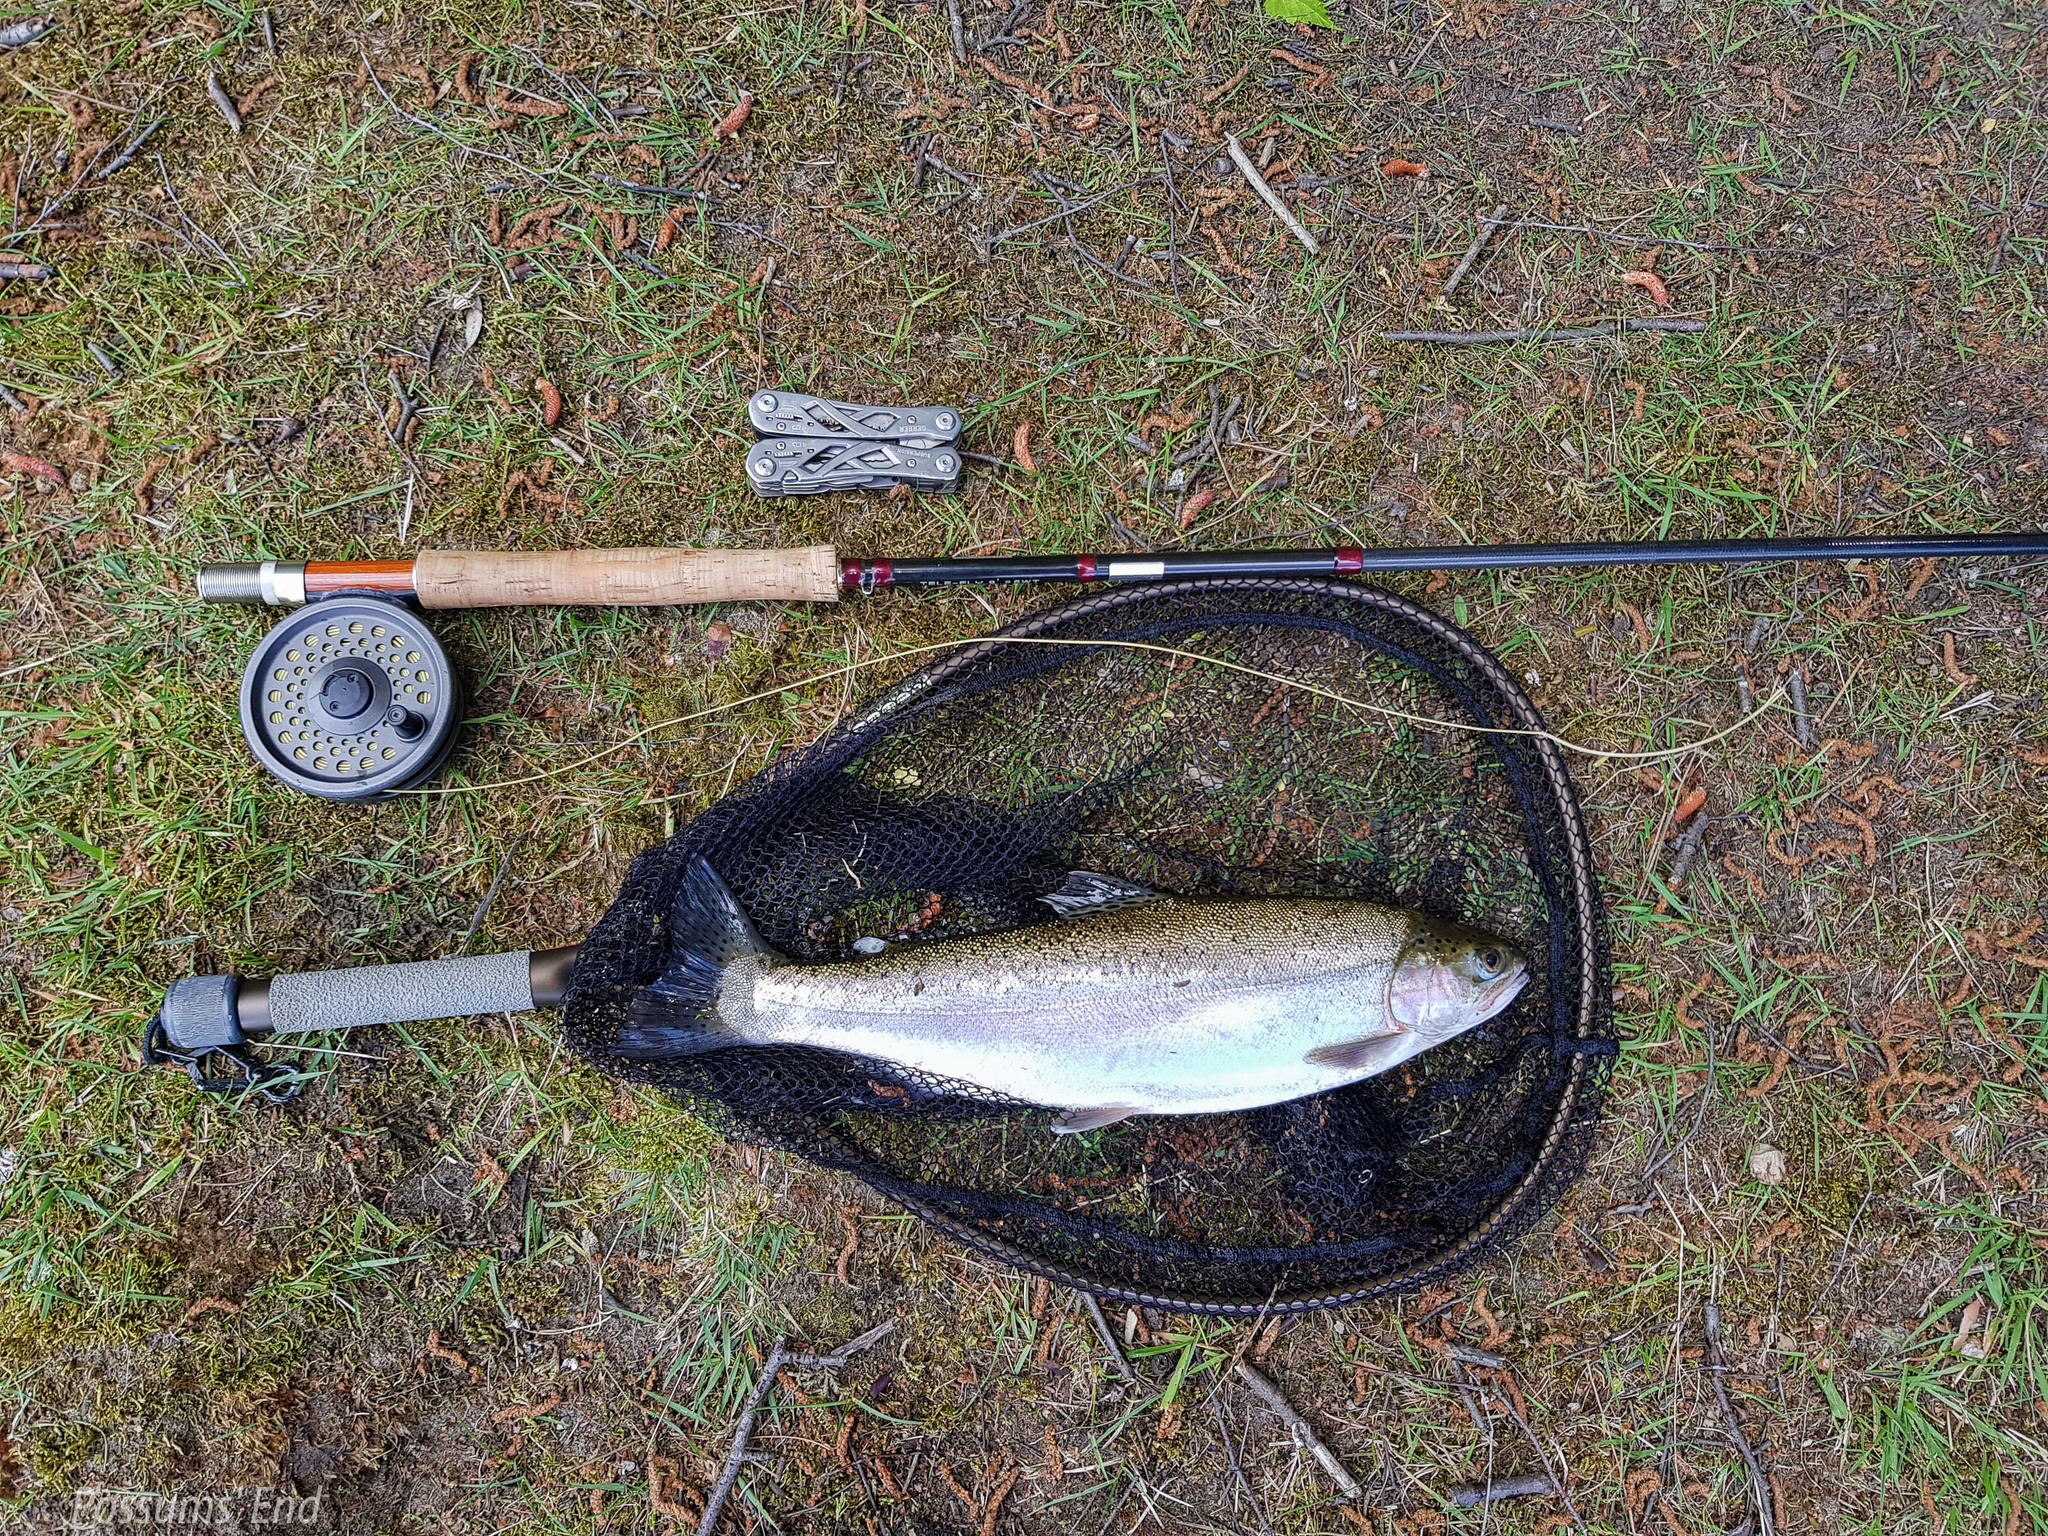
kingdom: Animalia
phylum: Chordata
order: Salmoniformes
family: Salmonidae
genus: Oncorhynchus
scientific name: Oncorhynchus mykiss
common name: Rainbow trout
